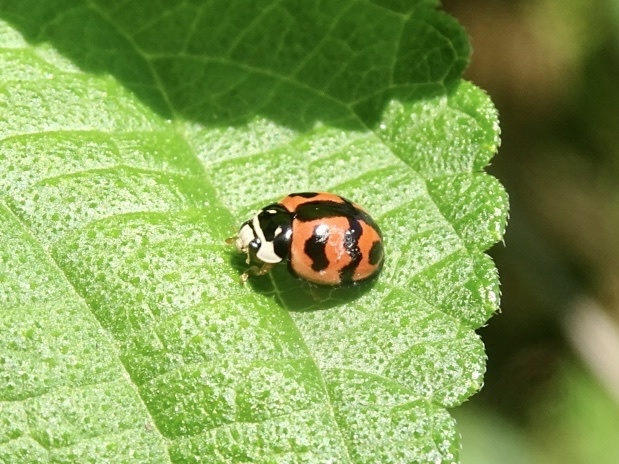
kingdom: Animalia
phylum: Arthropoda
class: Insecta
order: Coleoptera
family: Coccinellidae
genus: Cheilomenes
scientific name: Cheilomenes sexmaculata
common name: Ladybird beetle
